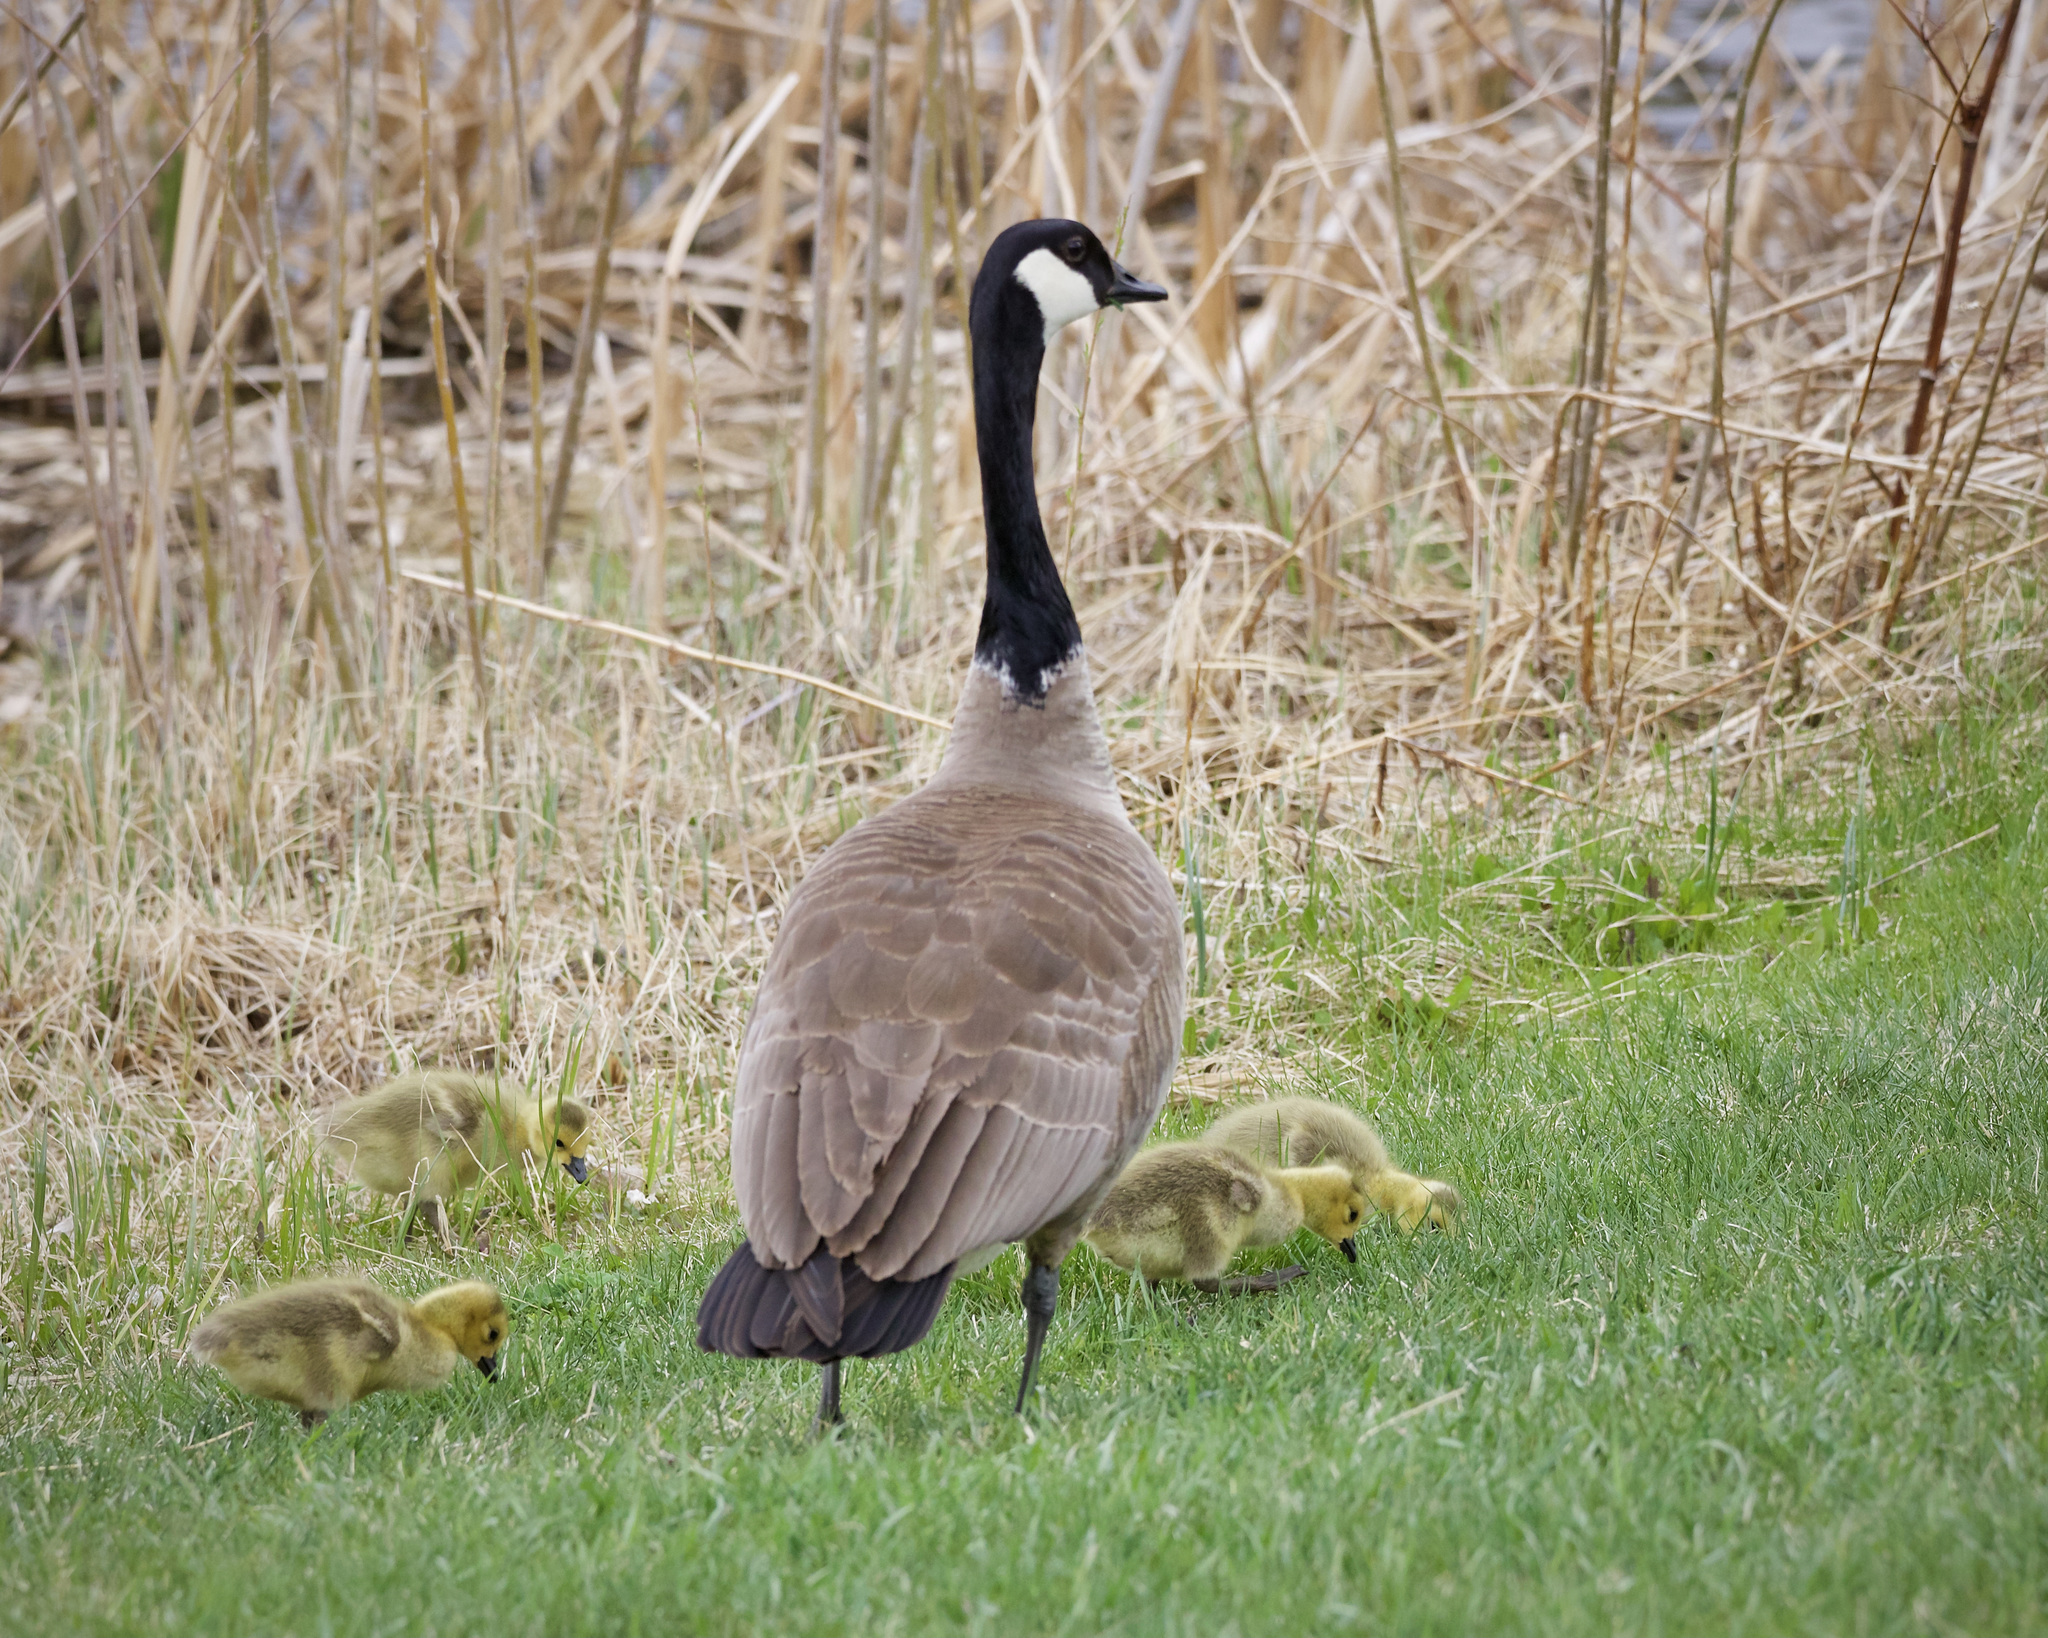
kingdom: Animalia
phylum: Chordata
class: Aves
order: Anseriformes
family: Anatidae
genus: Branta
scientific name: Branta canadensis
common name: Canada goose
